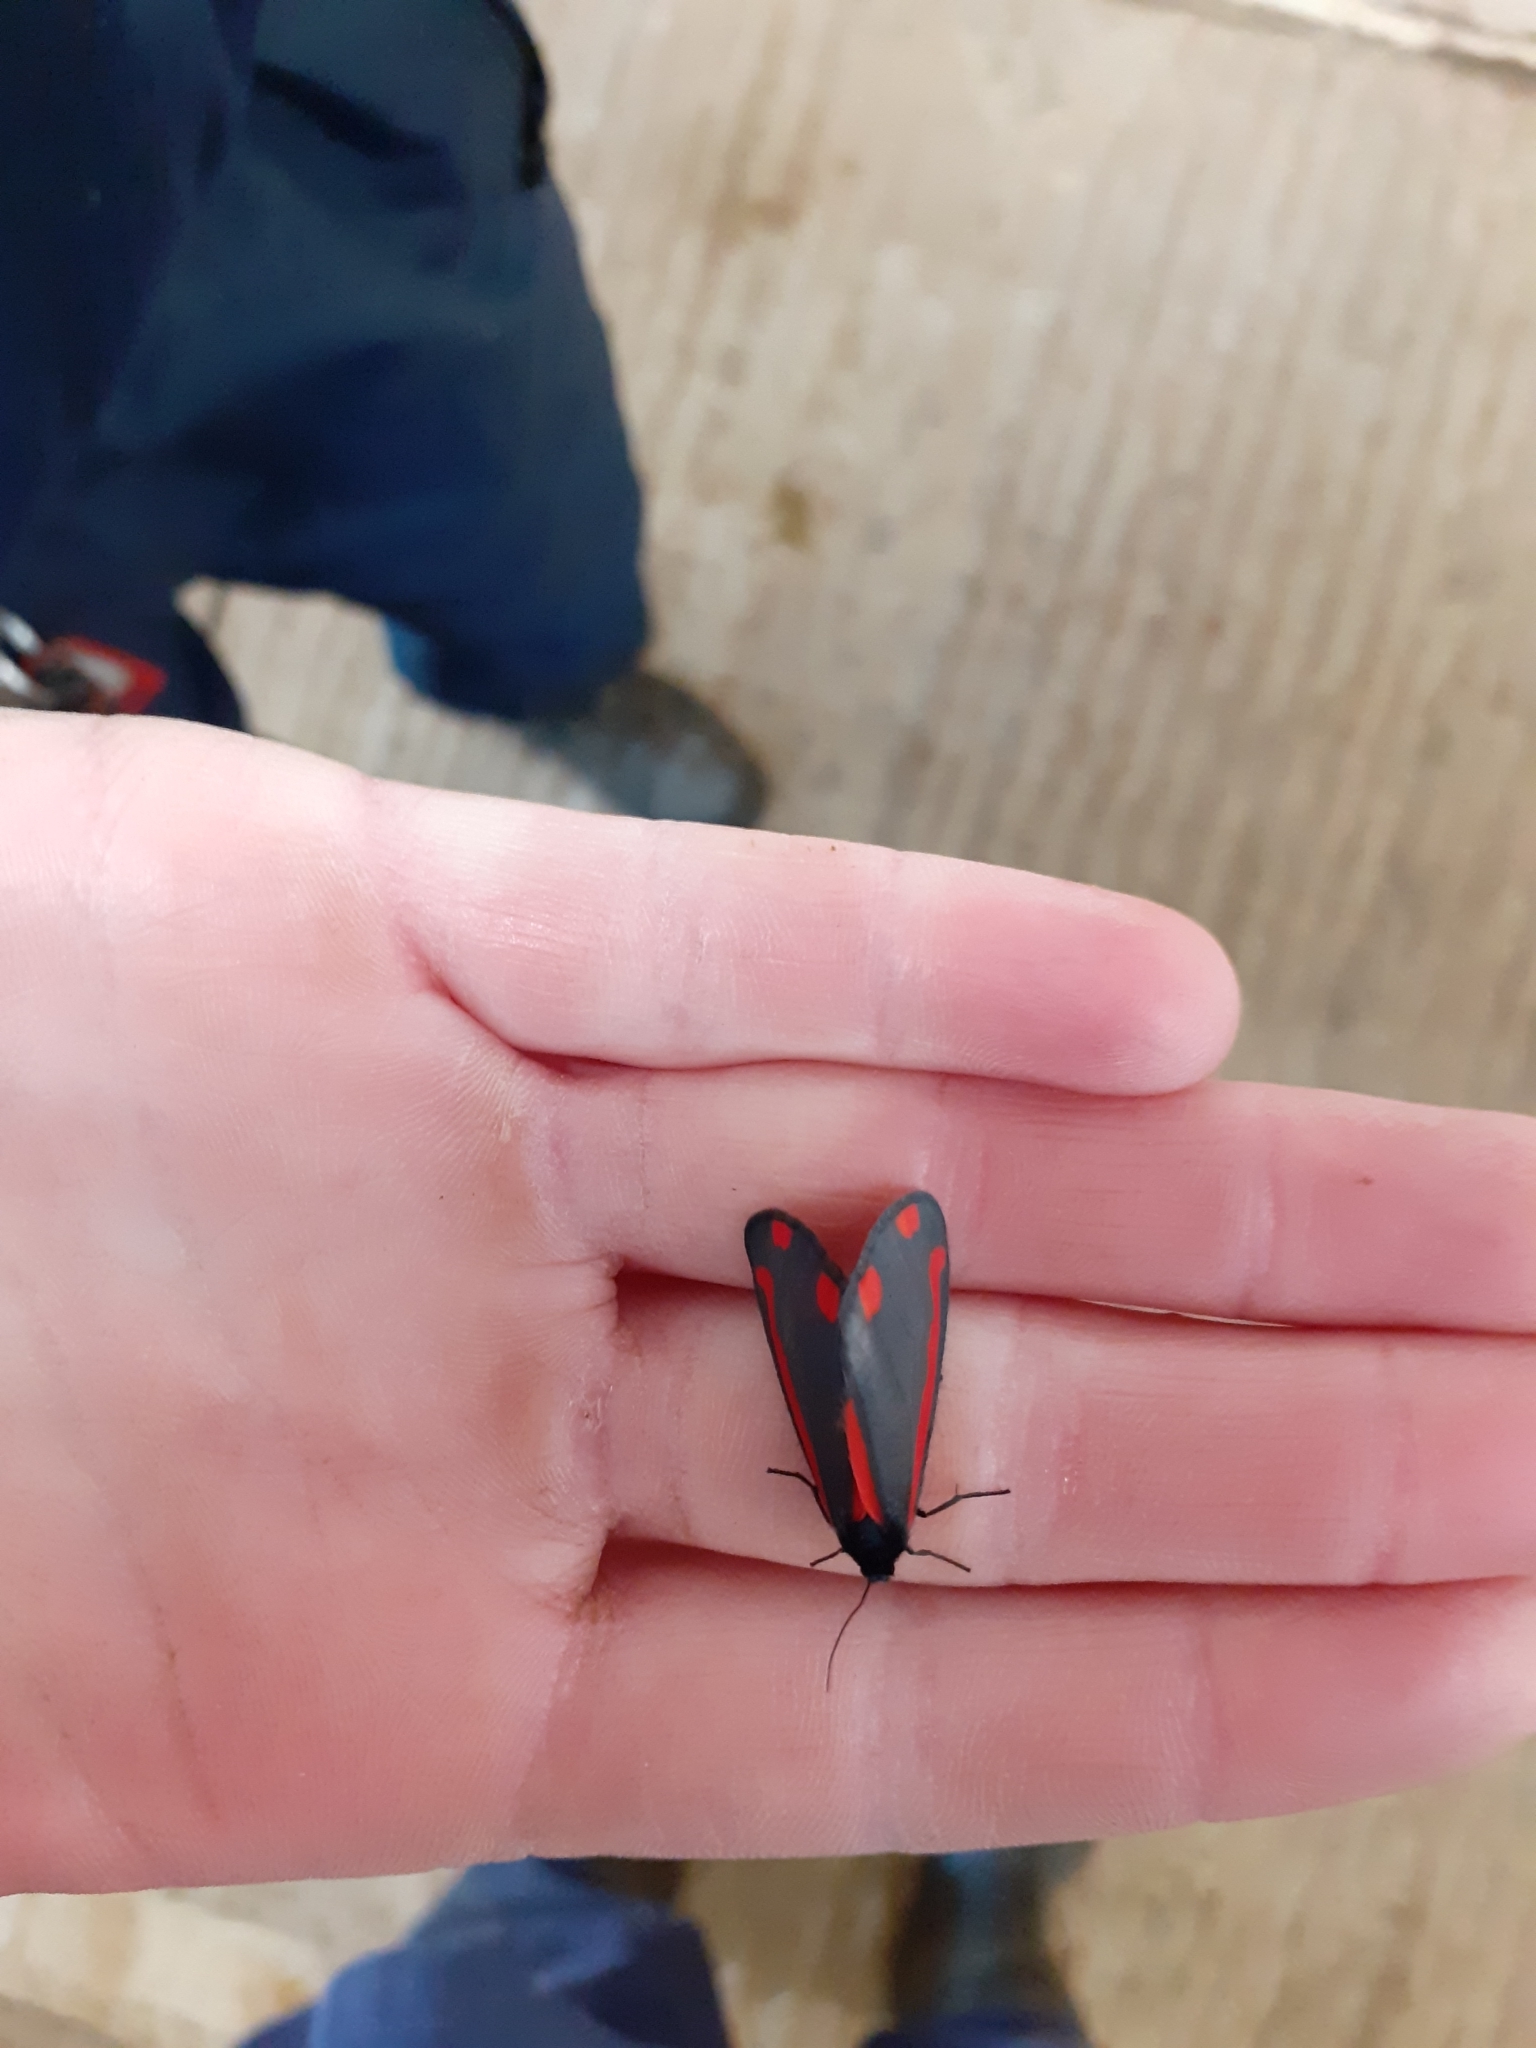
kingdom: Animalia
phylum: Arthropoda
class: Insecta
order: Lepidoptera
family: Erebidae
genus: Tyria
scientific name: Tyria jacobaeae
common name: Cinnabar
